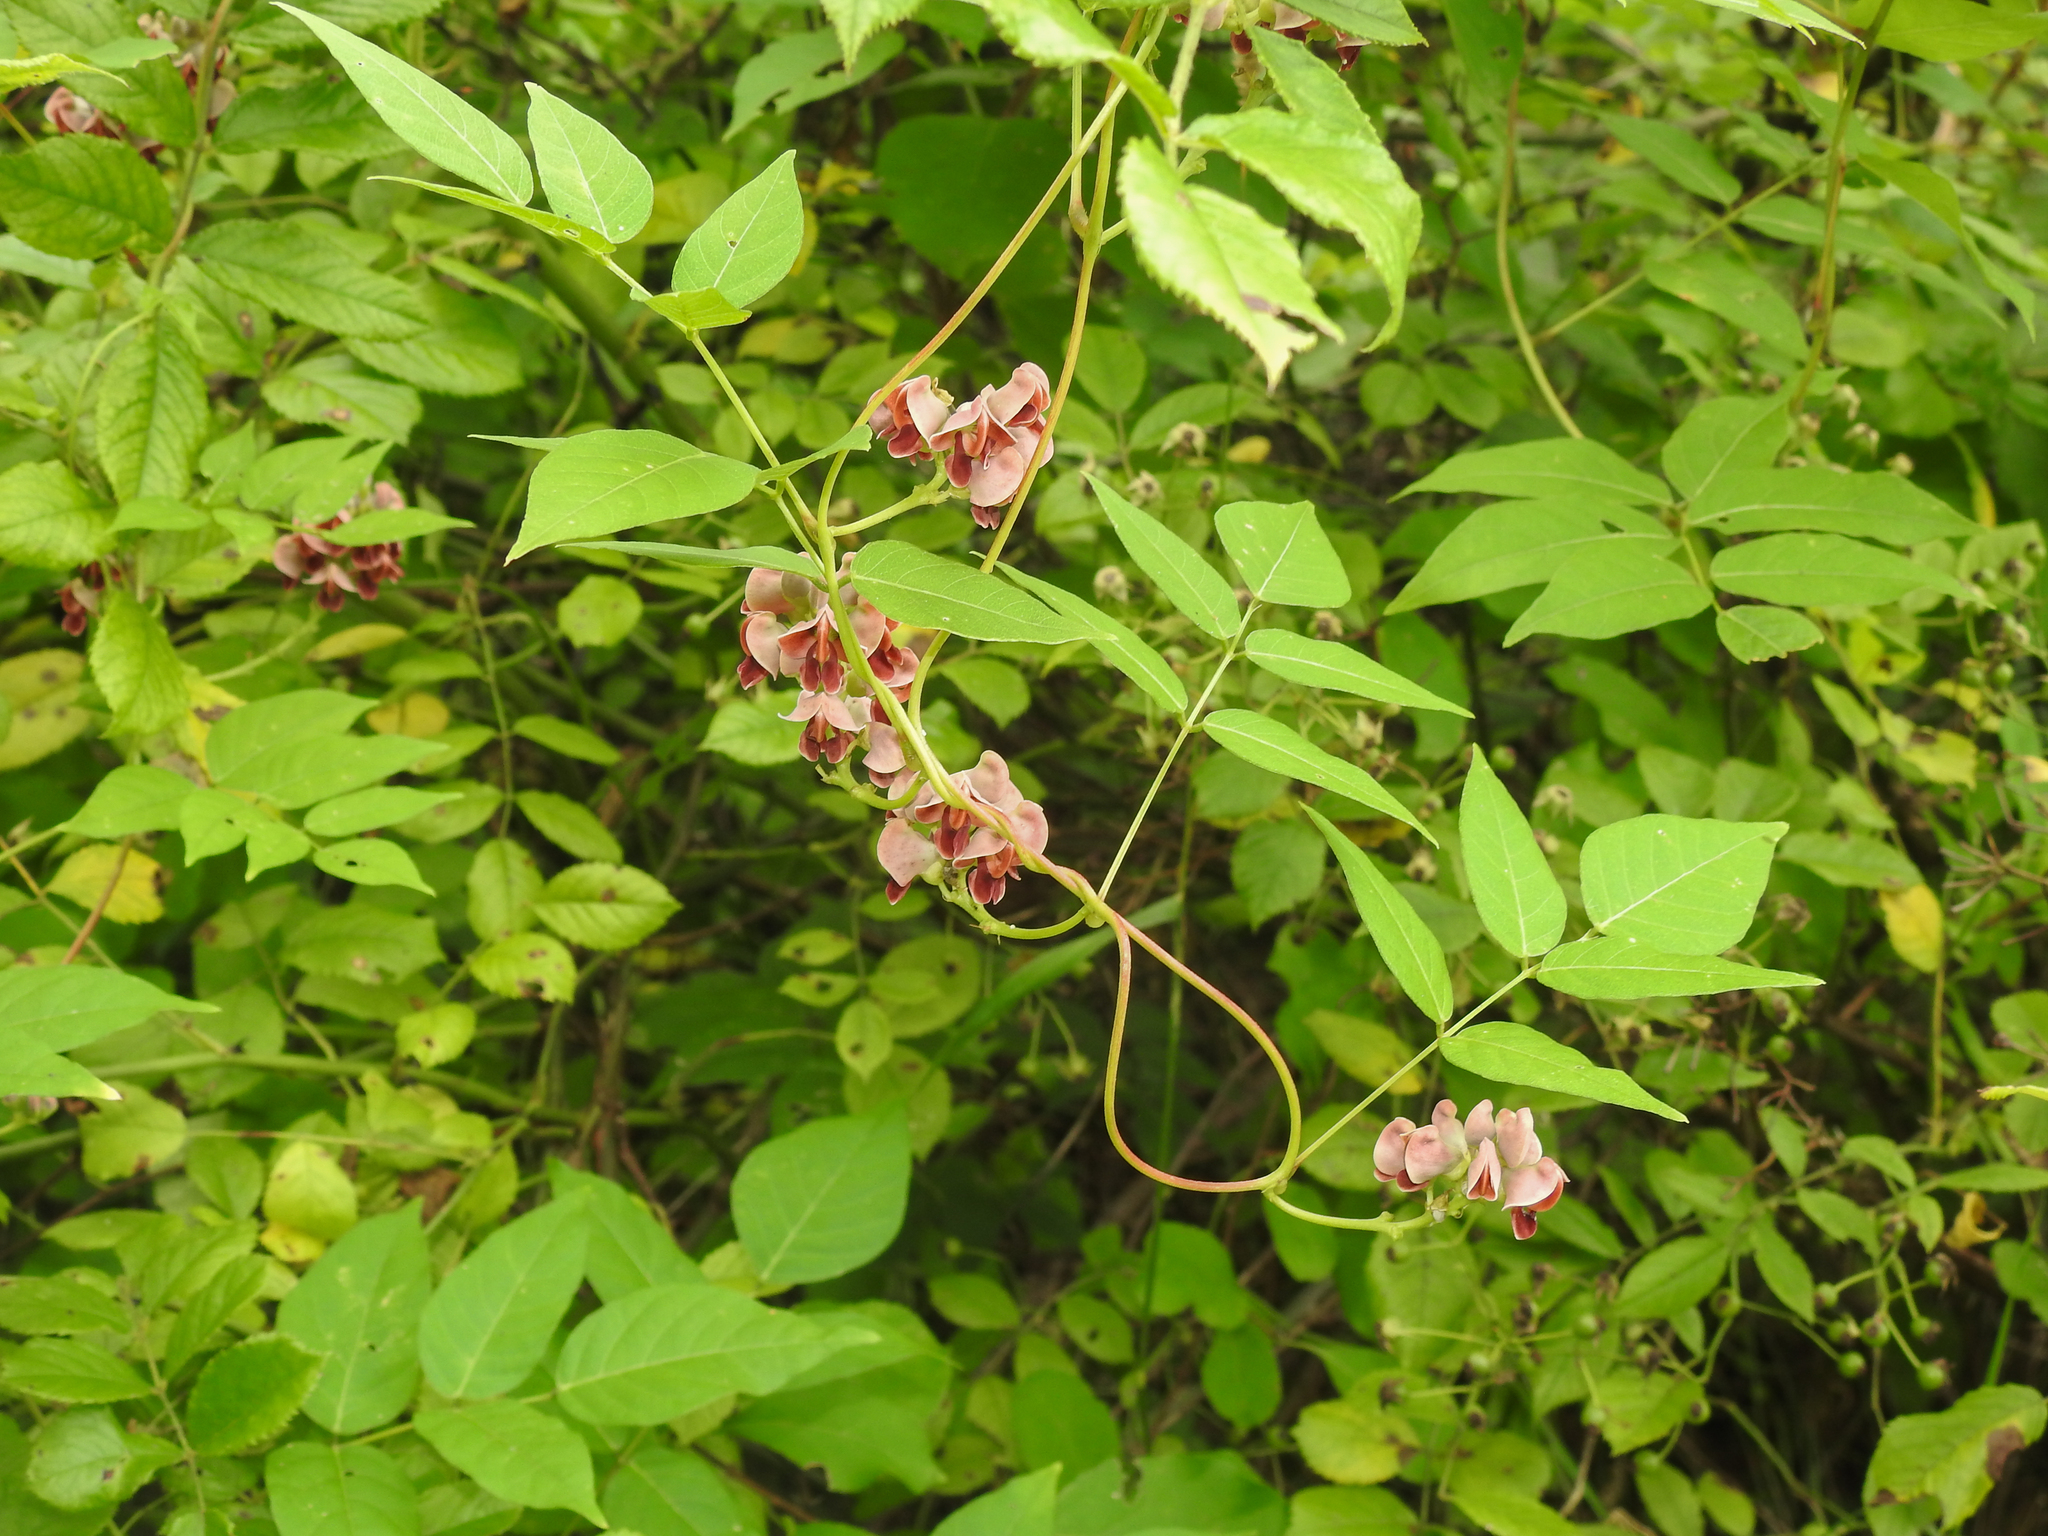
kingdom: Plantae
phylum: Tracheophyta
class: Magnoliopsida
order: Fabales
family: Fabaceae
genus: Apios
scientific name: Apios americana
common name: American potato-bean
